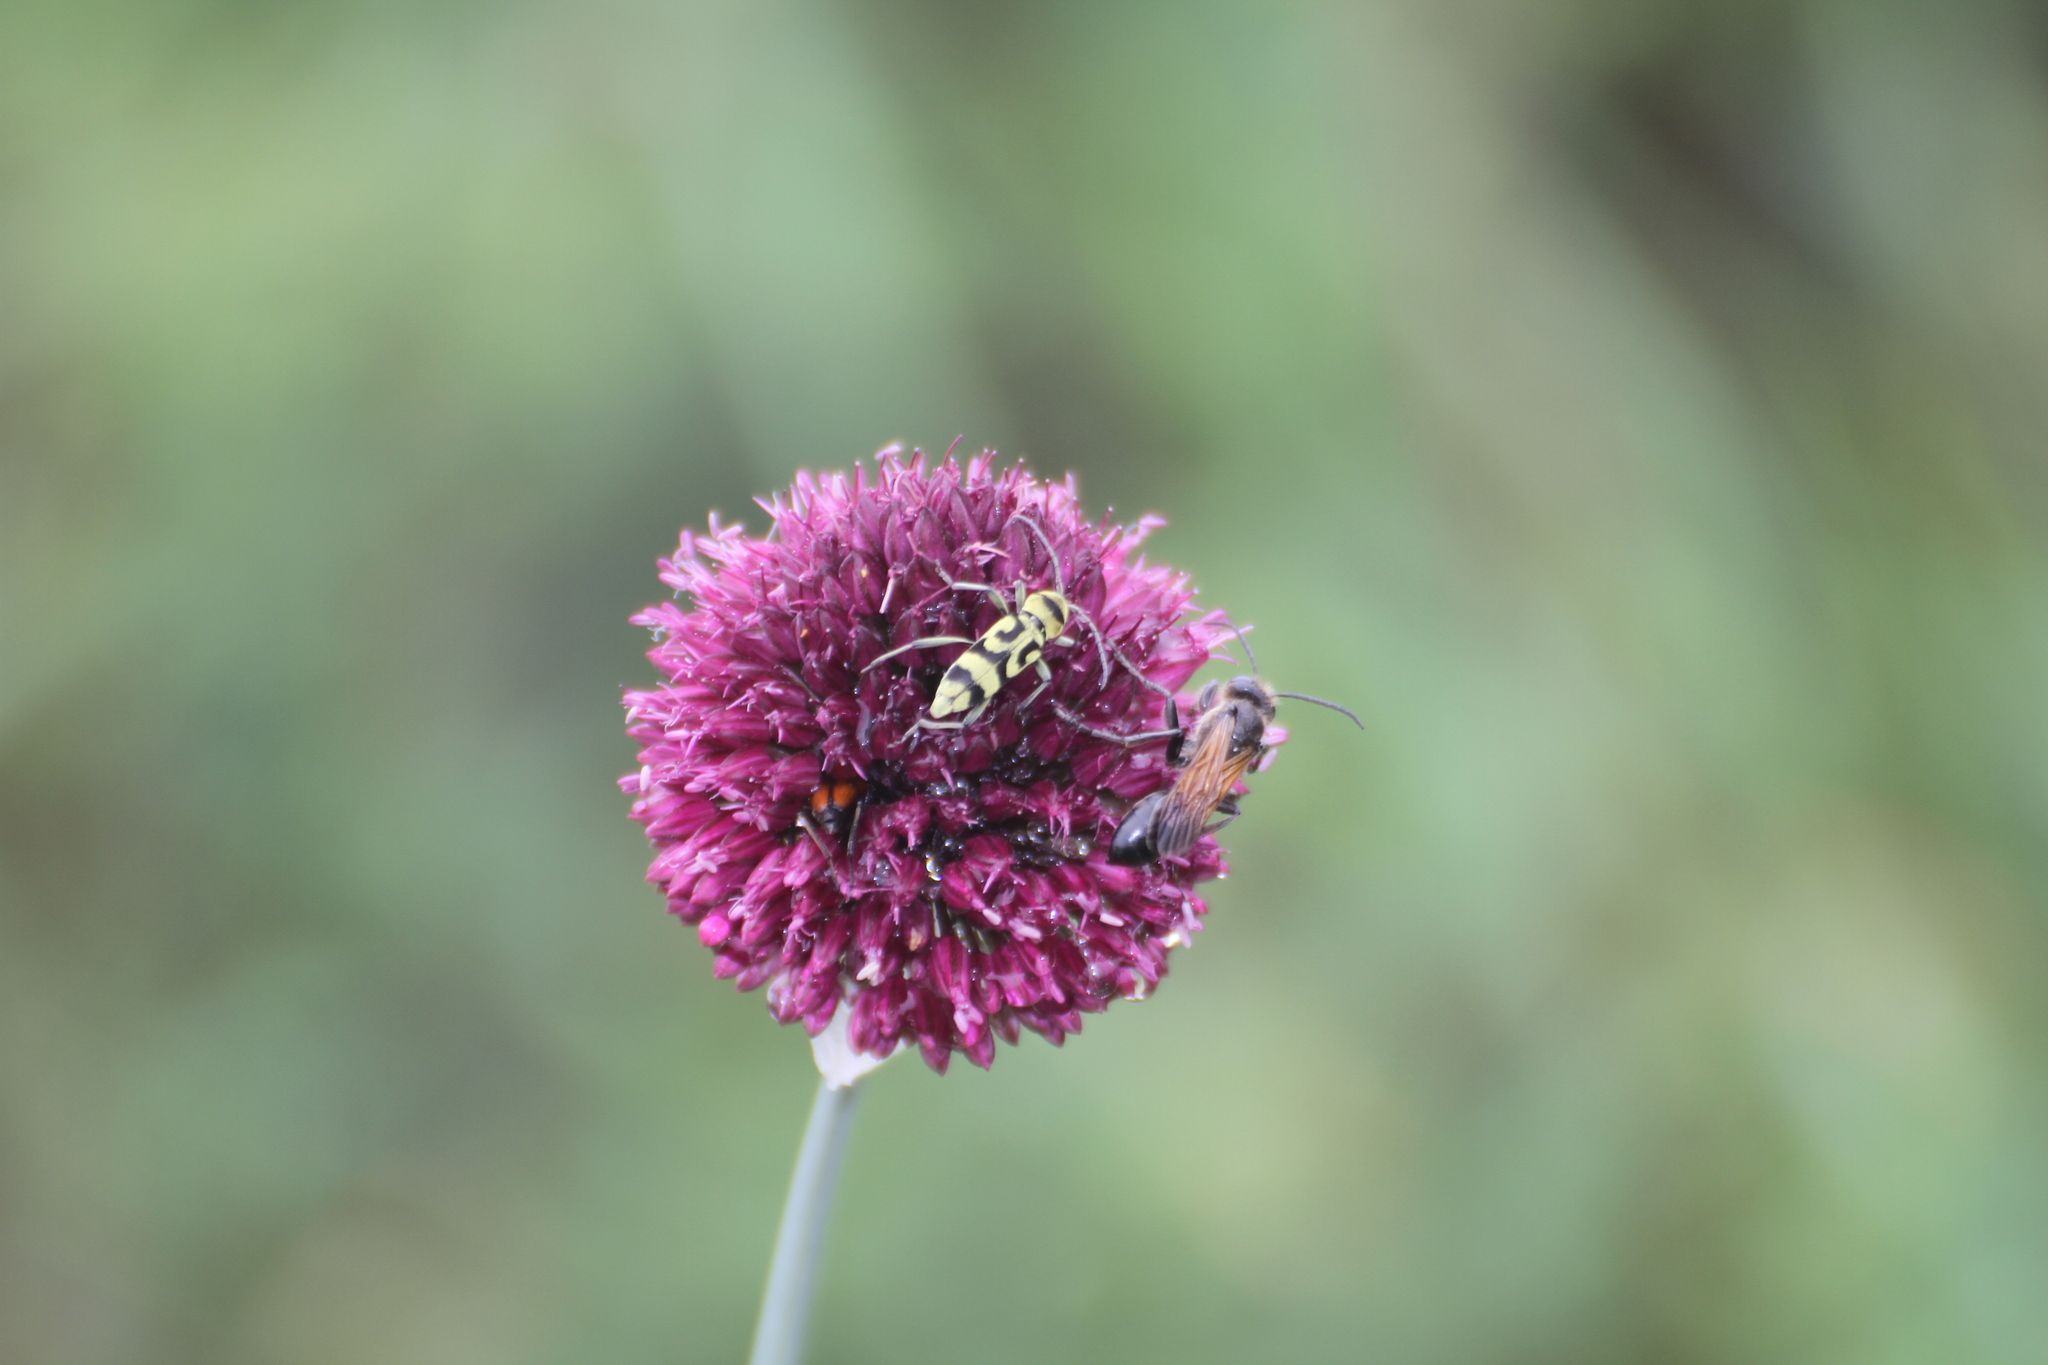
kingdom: Animalia
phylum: Arthropoda
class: Insecta
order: Coleoptera
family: Cerambycidae
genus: Chlorophorus
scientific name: Chlorophorus varius
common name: Grape wood borer
